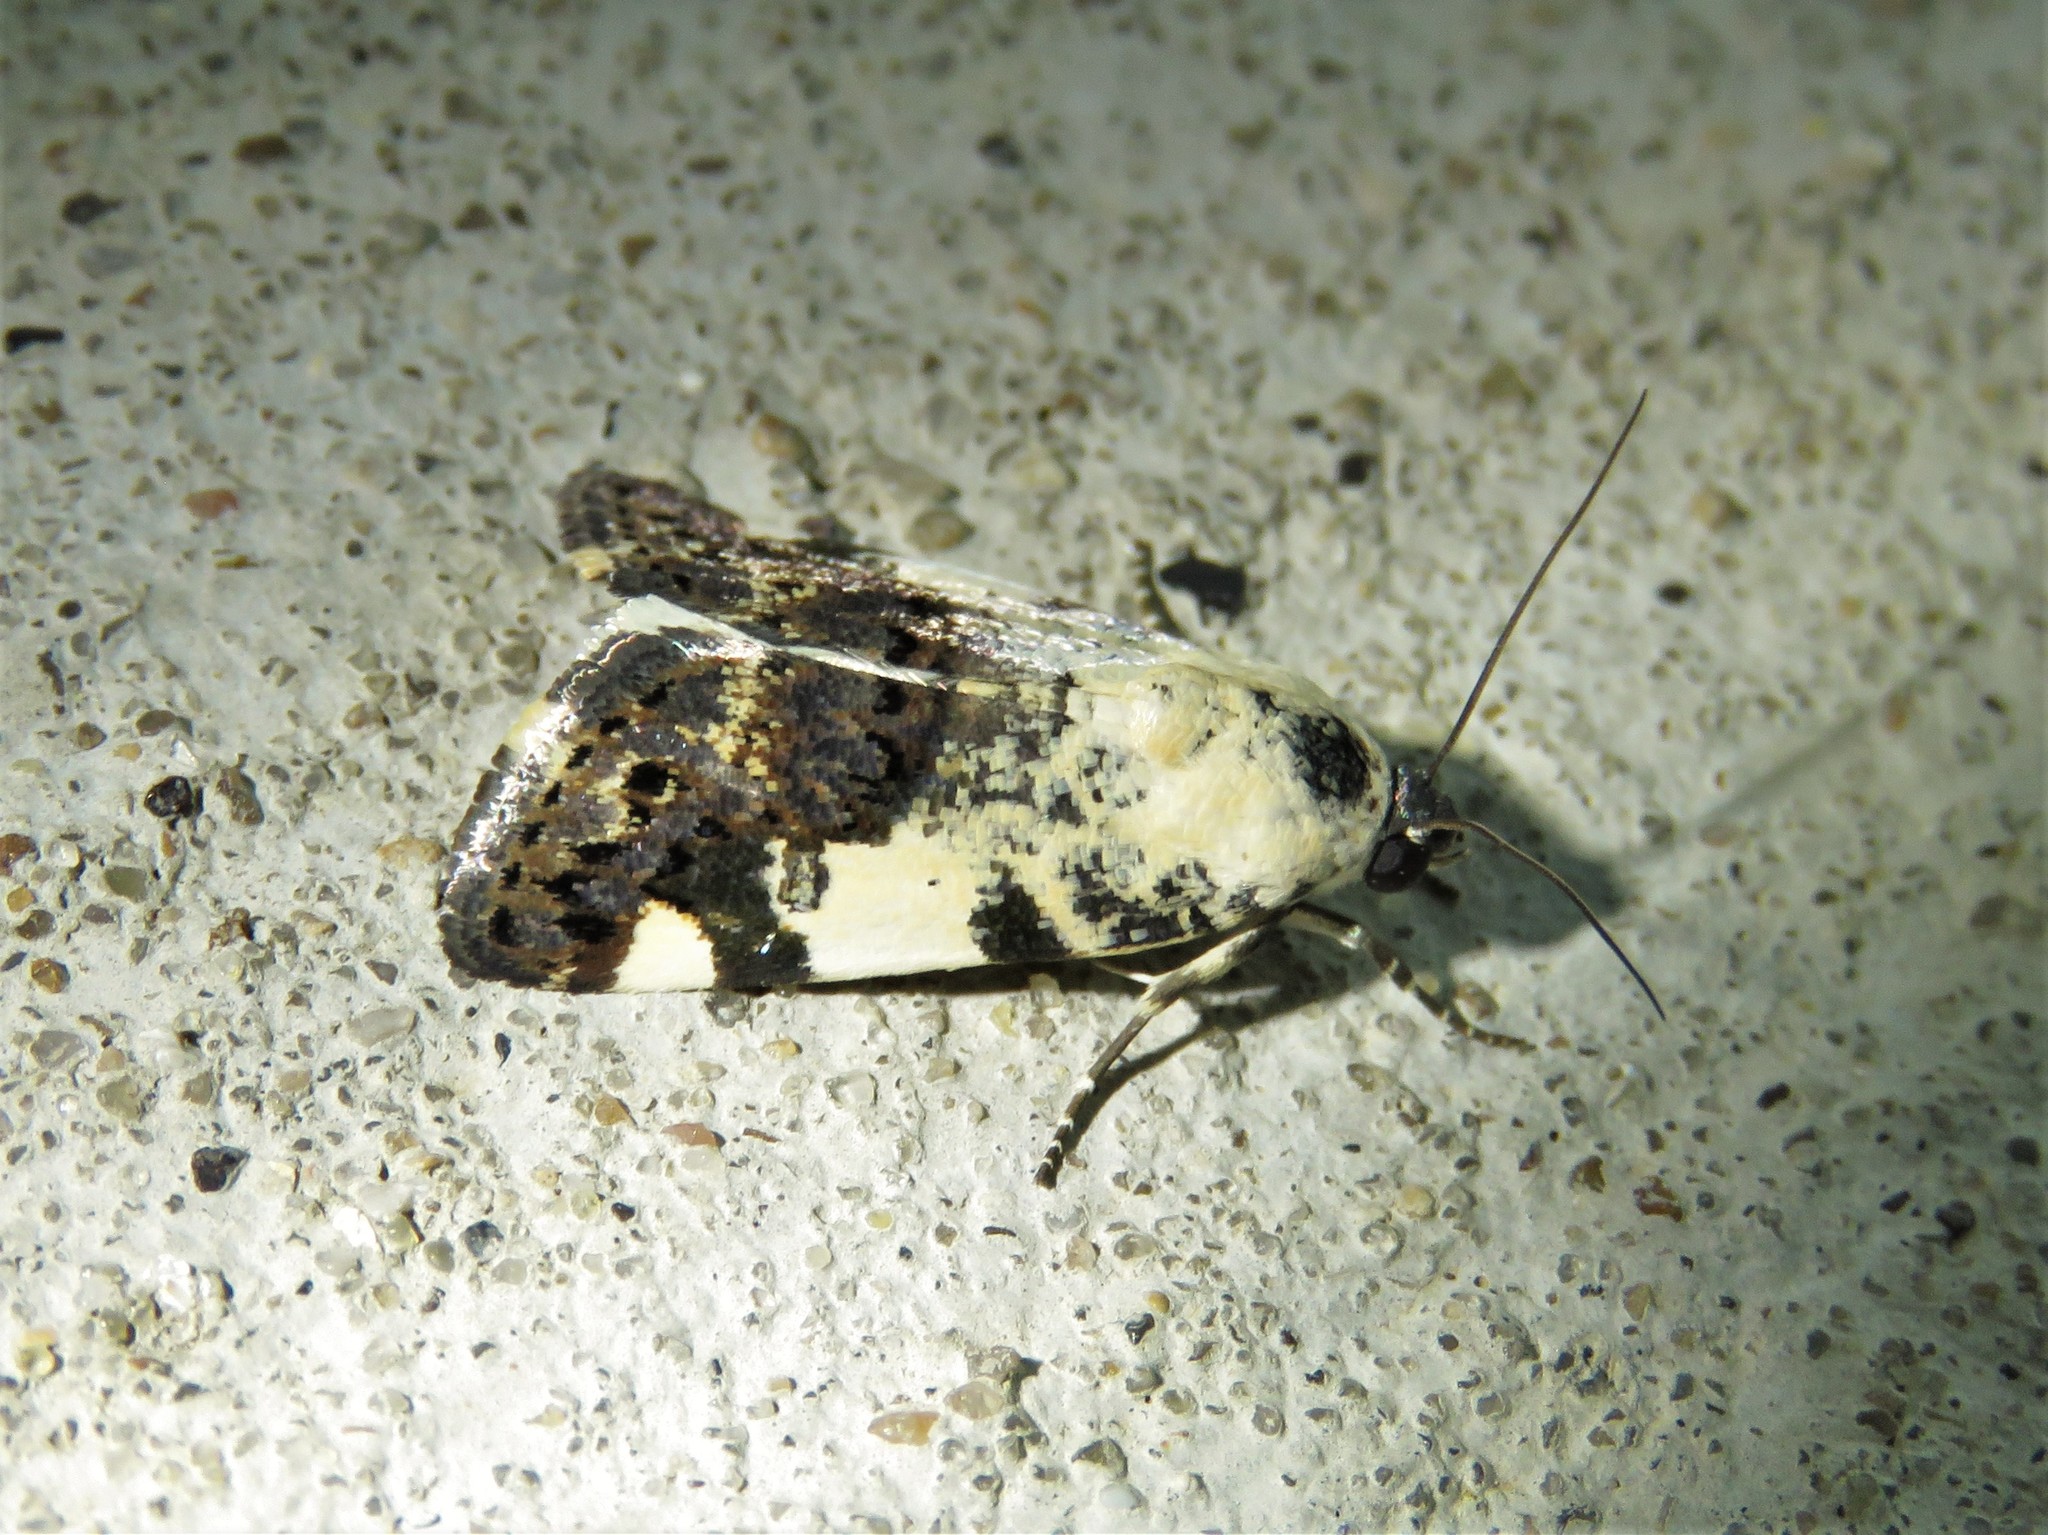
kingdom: Animalia
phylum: Arthropoda
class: Insecta
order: Lepidoptera
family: Noctuidae
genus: Acontia
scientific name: Acontia aprica
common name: Nun
